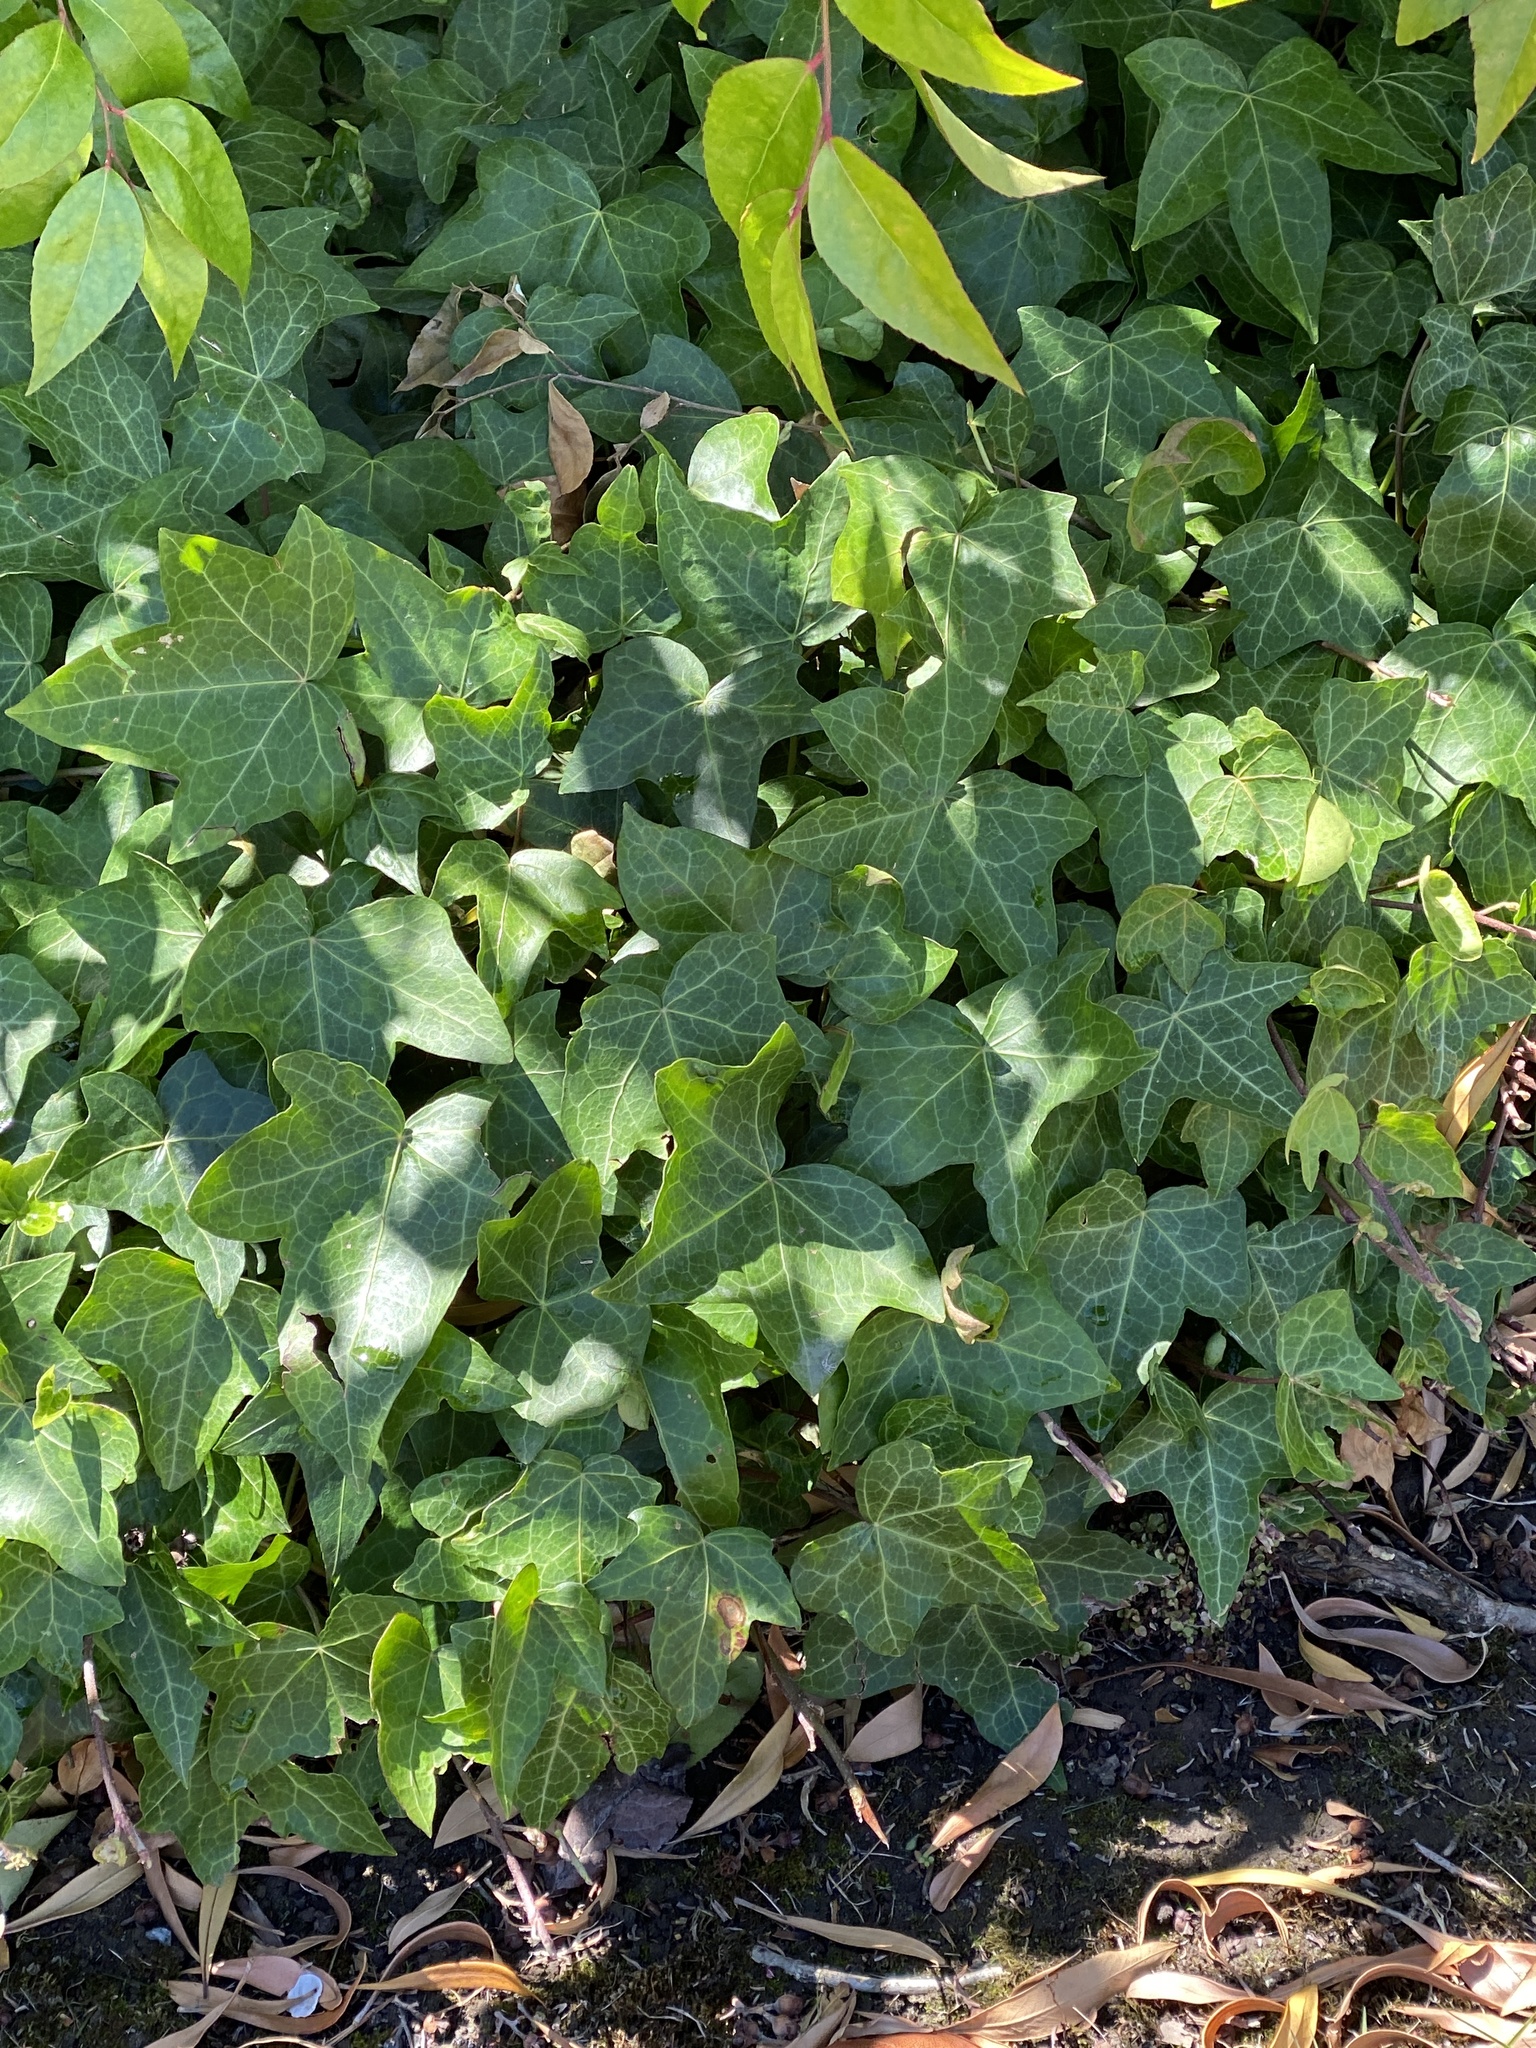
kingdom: Plantae
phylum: Tracheophyta
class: Magnoliopsida
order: Apiales
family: Araliaceae
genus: Hedera
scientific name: Hedera helix
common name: Ivy
